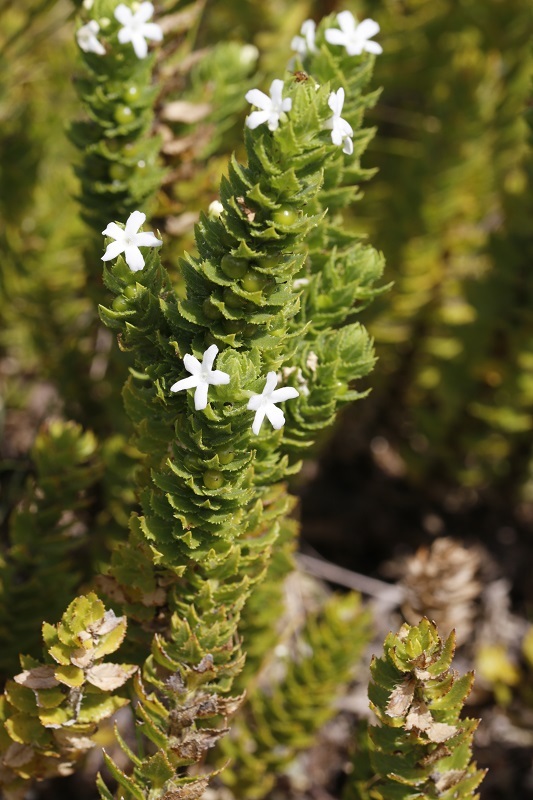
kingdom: Plantae
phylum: Tracheophyta
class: Magnoliopsida
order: Lamiales
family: Scrophulariaceae
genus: Oftia
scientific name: Oftia africana
